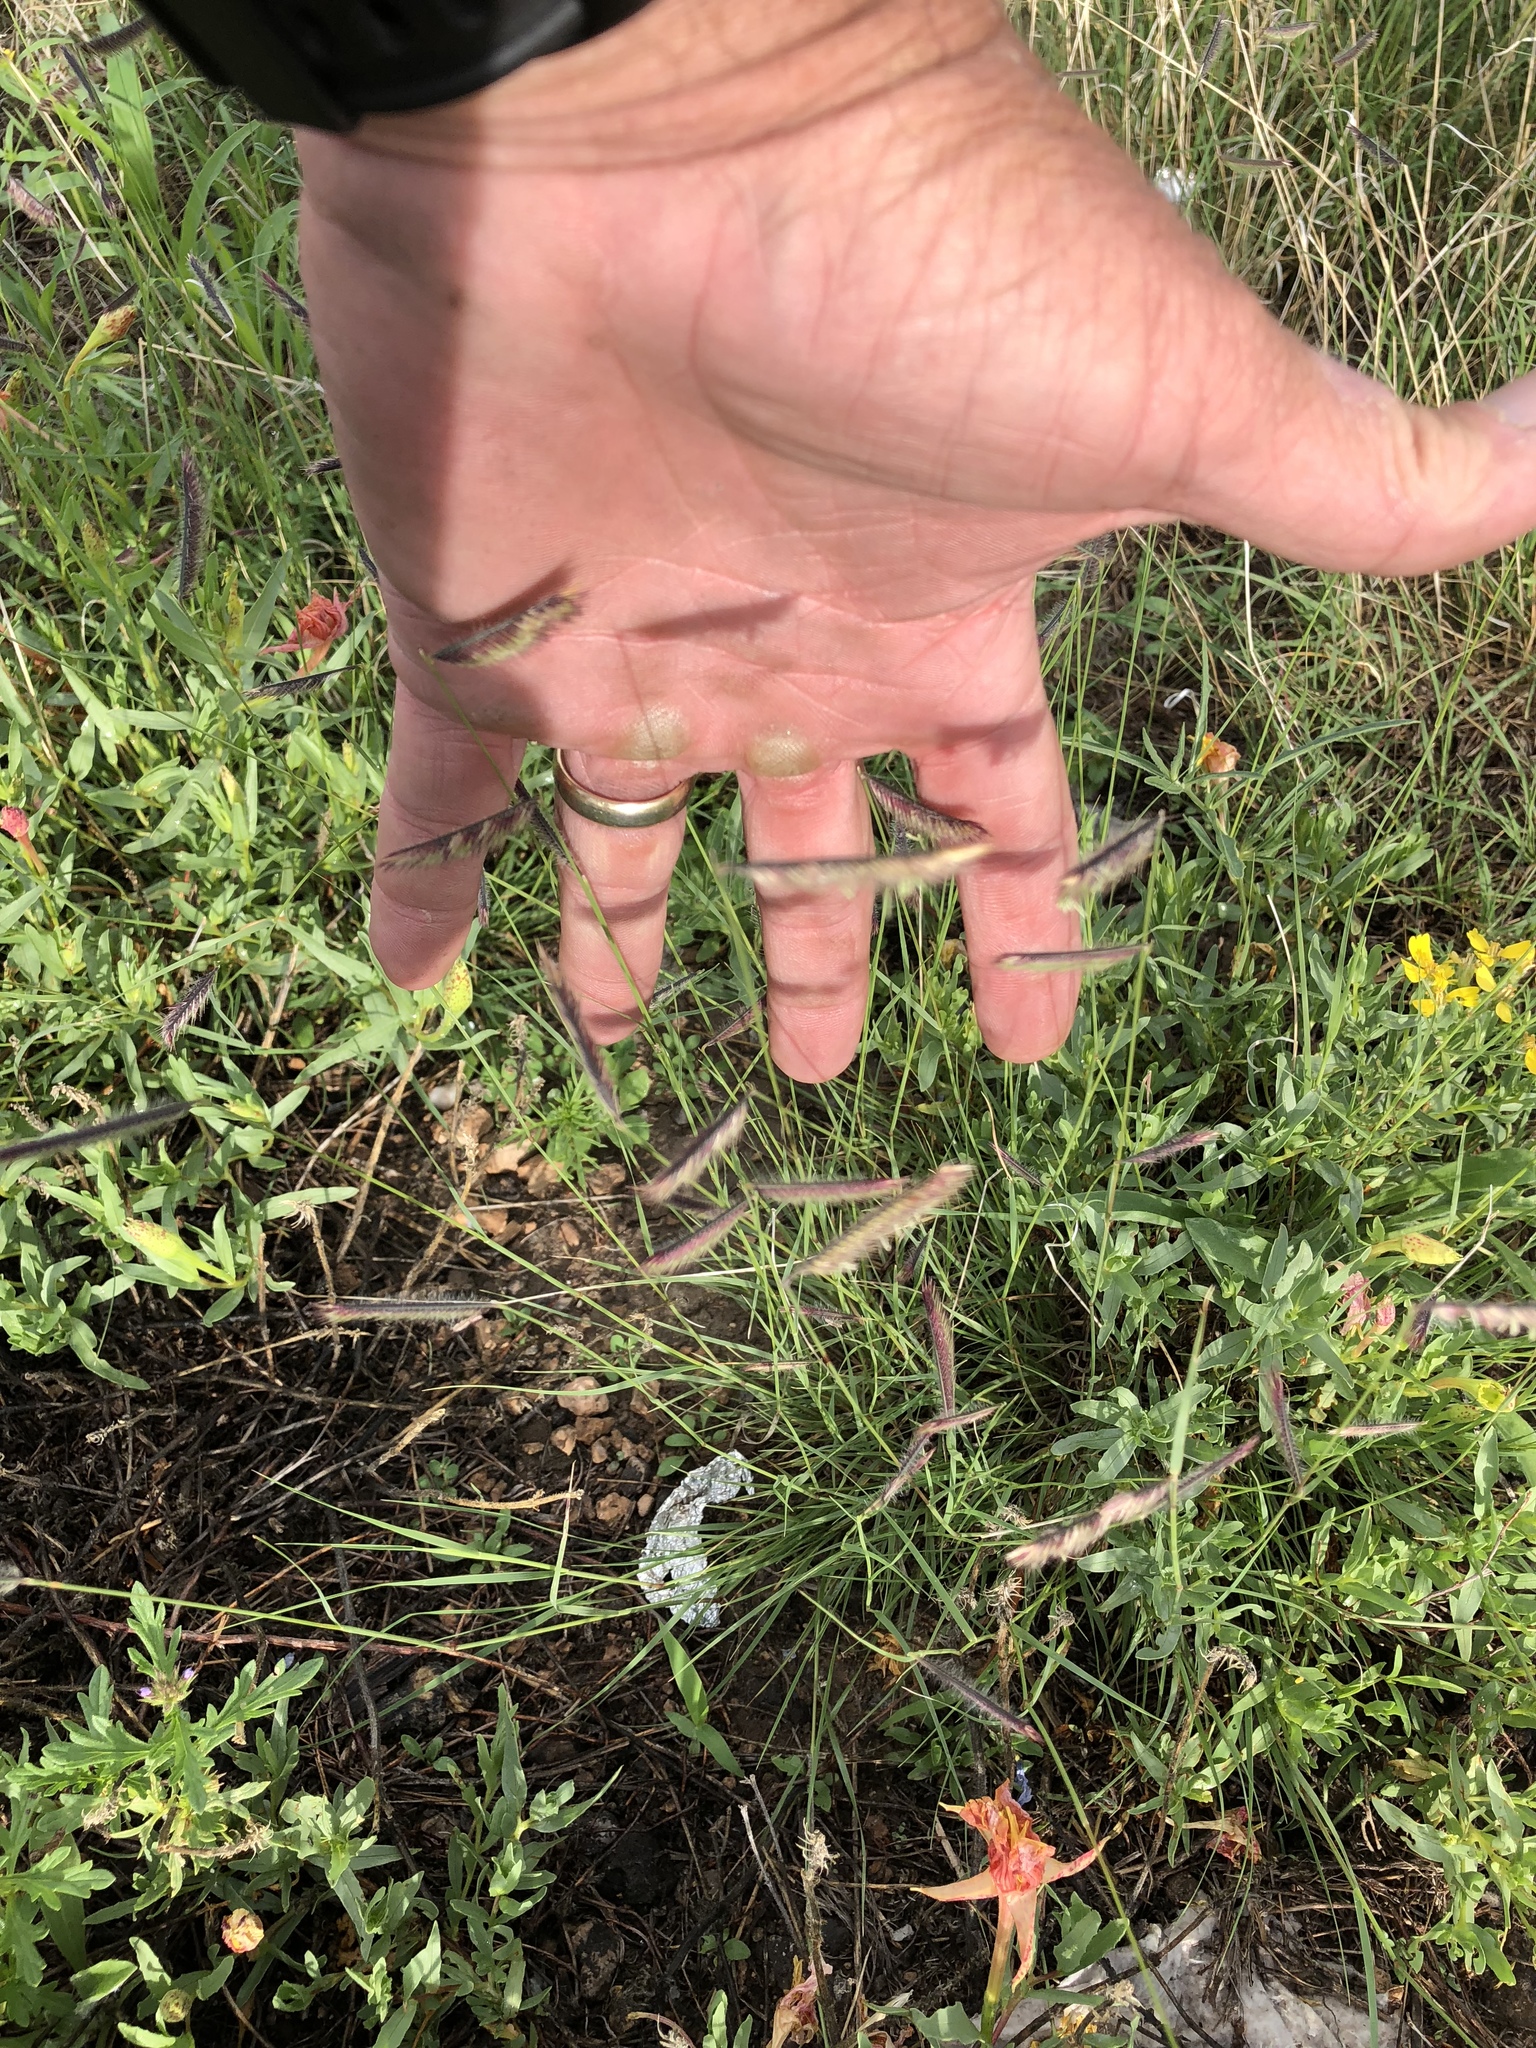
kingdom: Plantae
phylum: Tracheophyta
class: Liliopsida
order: Poales
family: Poaceae
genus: Bouteloua
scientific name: Bouteloua gracilis
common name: Blue grama
